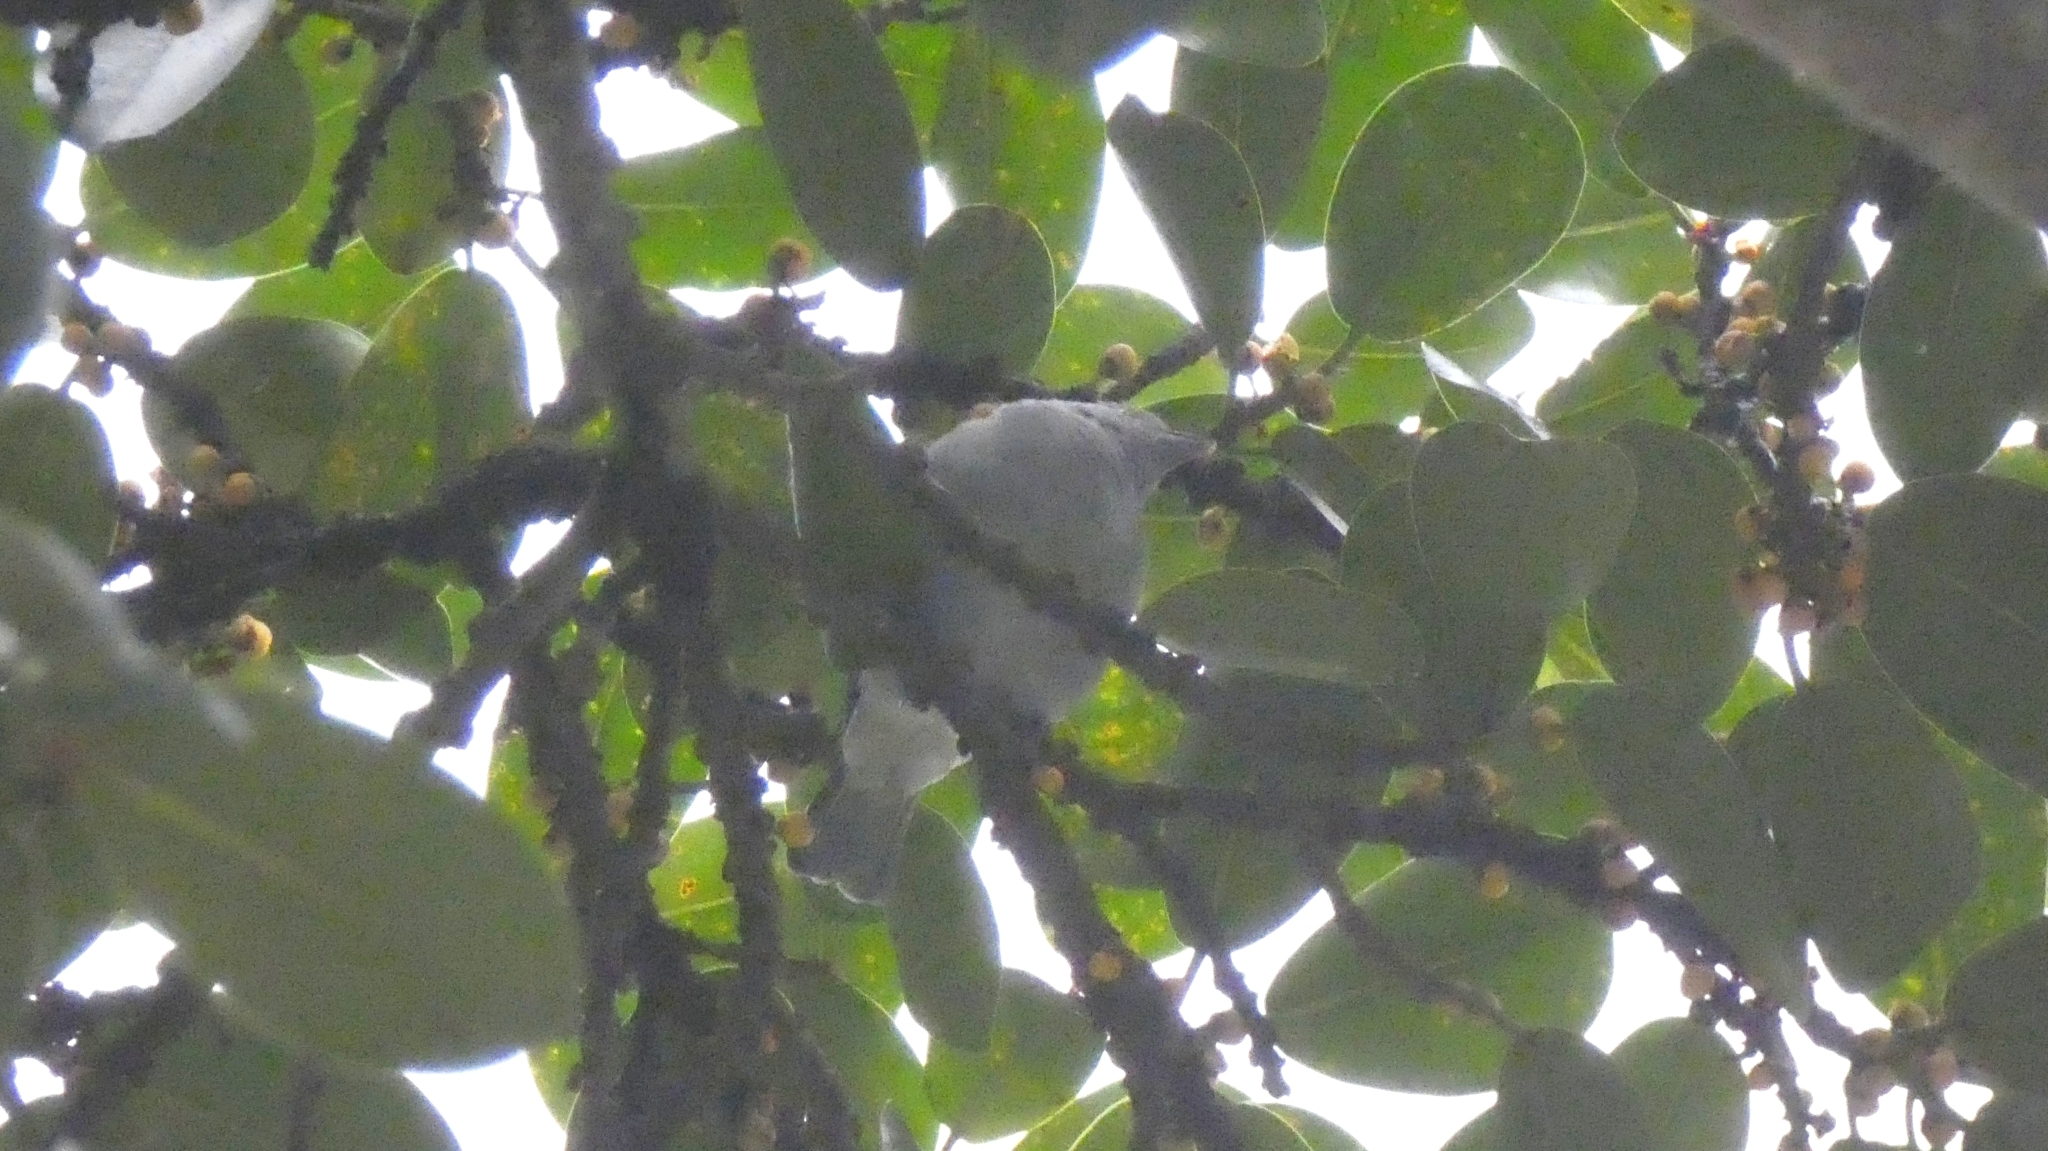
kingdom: Animalia
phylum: Chordata
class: Aves
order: Passeriformes
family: Thraupidae
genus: Thraupis
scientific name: Thraupis sayaca
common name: Sayaca tanager
